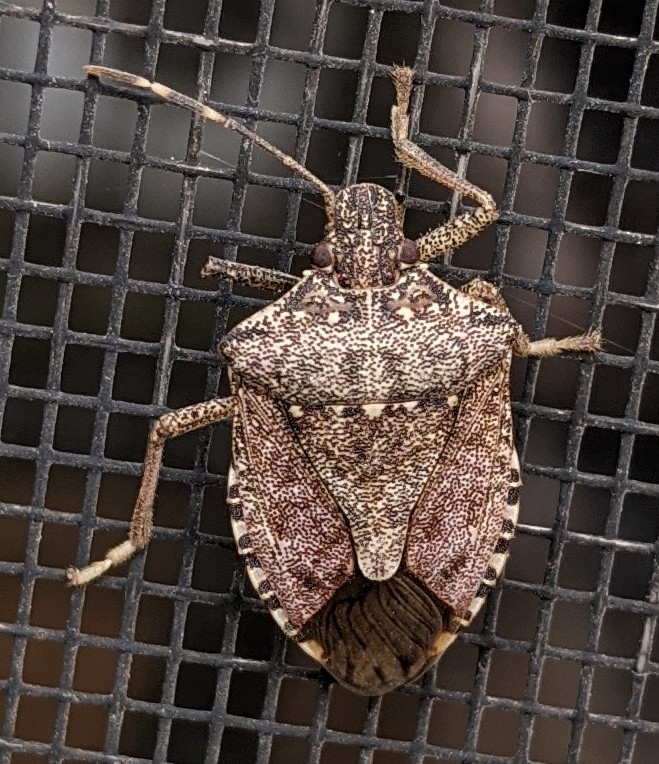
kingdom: Animalia
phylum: Arthropoda
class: Insecta
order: Hemiptera
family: Pentatomidae
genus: Halyomorpha
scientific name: Halyomorpha halys
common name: Brown marmorated stink bug
